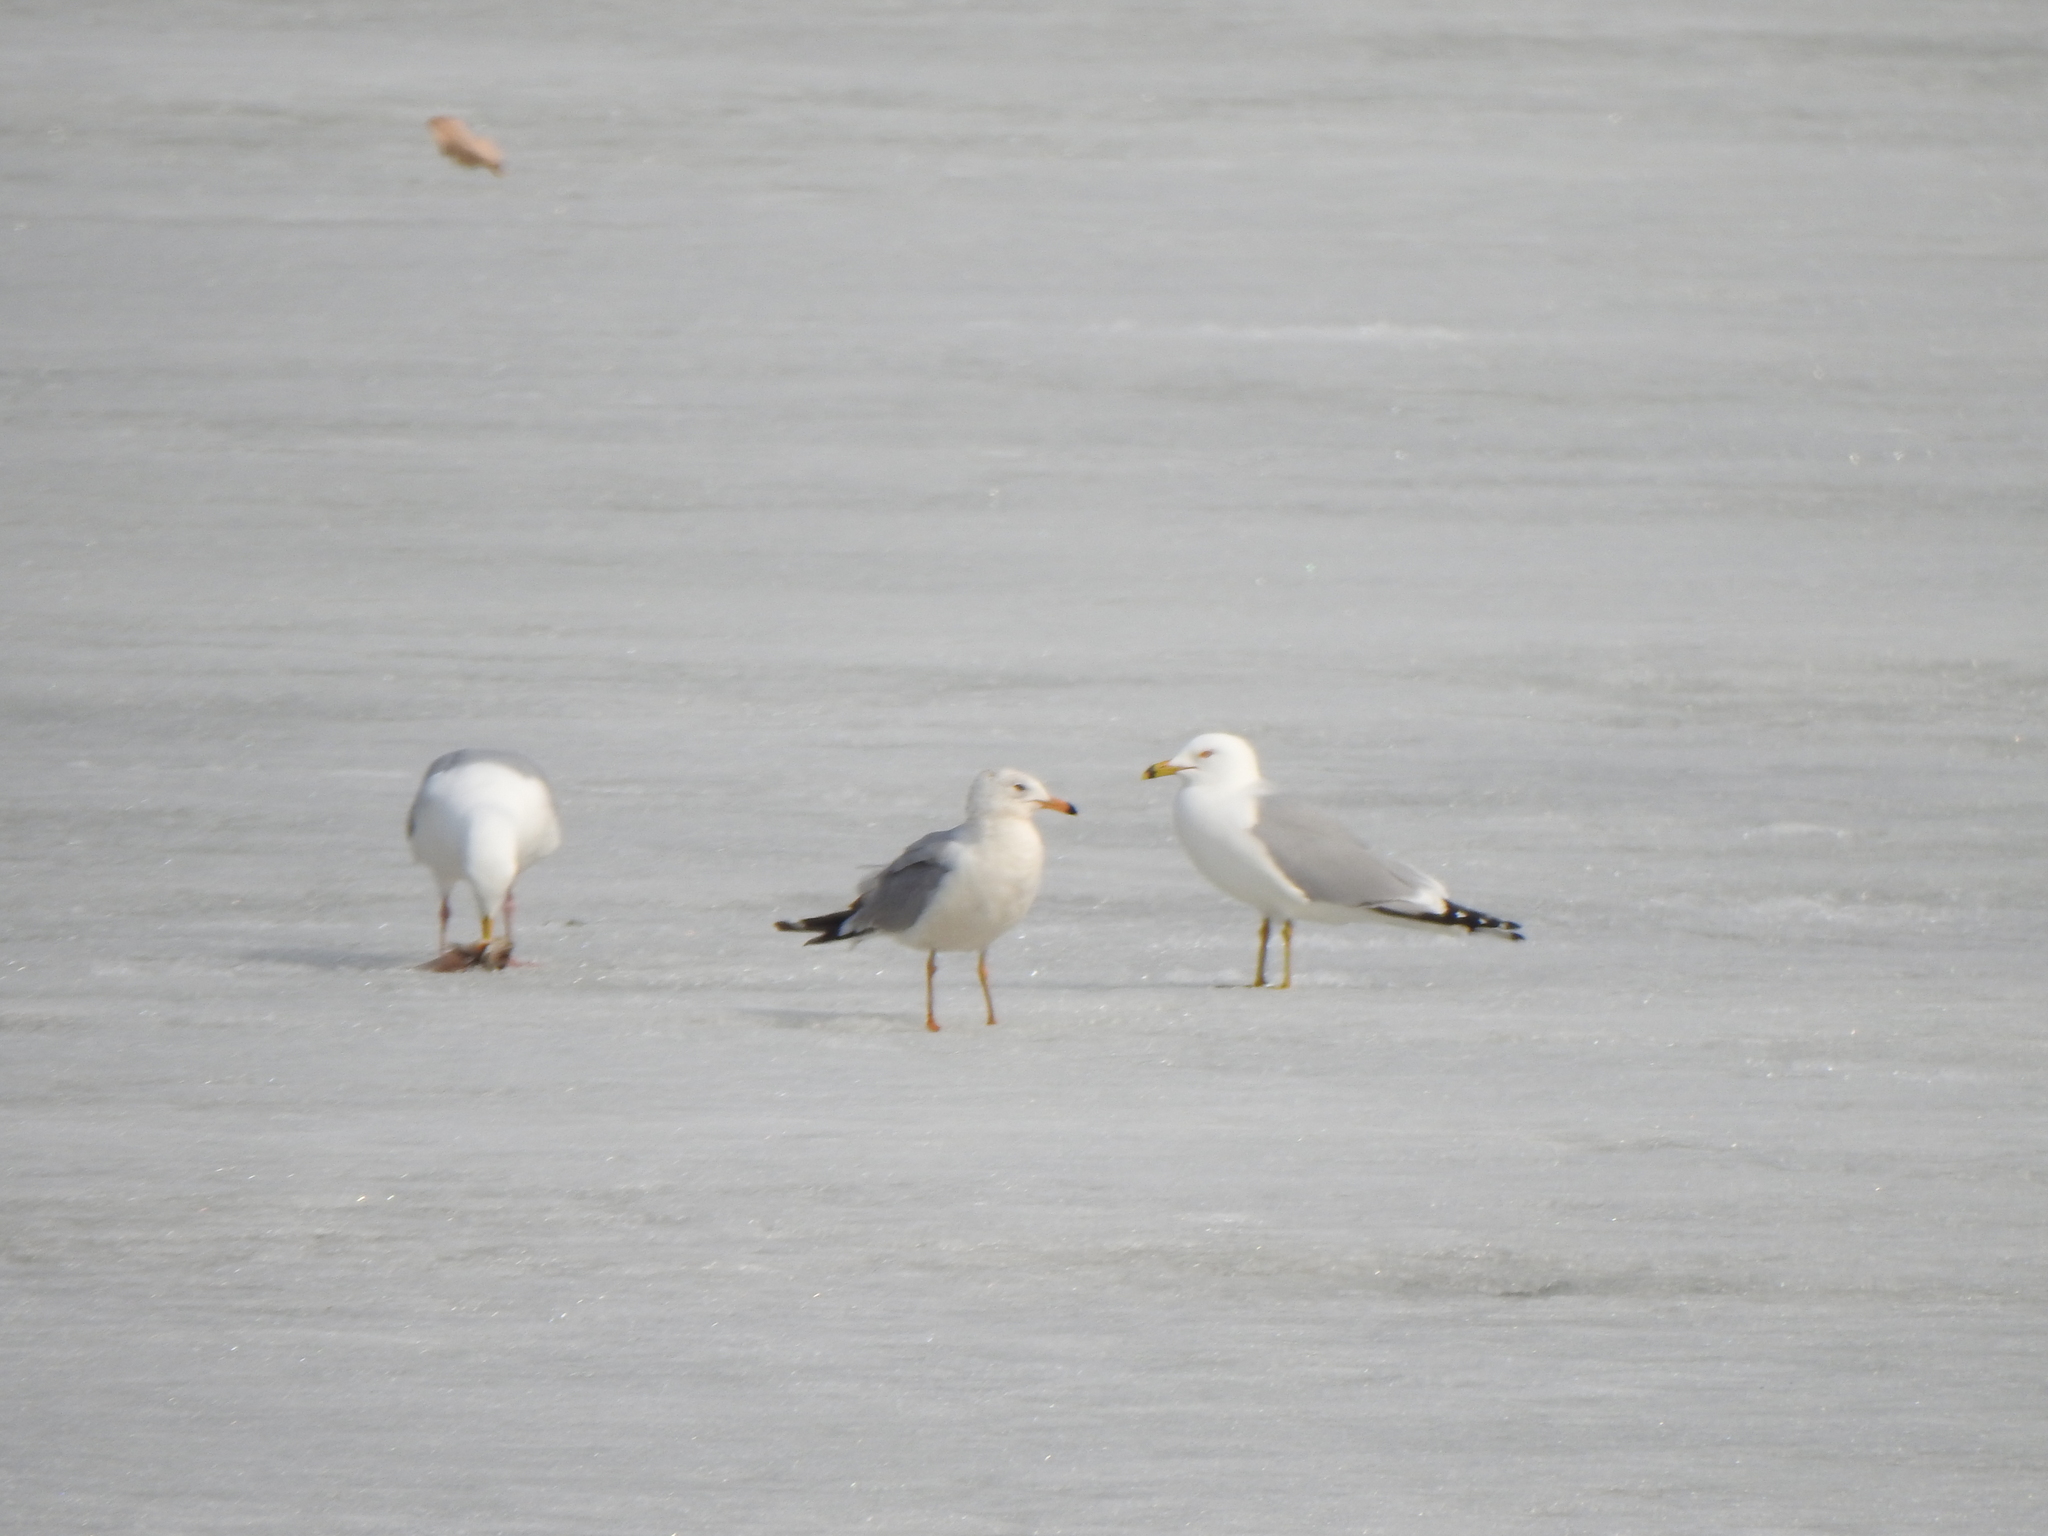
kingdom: Animalia
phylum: Chordata
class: Aves
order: Charadriiformes
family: Laridae
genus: Larus
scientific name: Larus delawarensis
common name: Ring-billed gull
